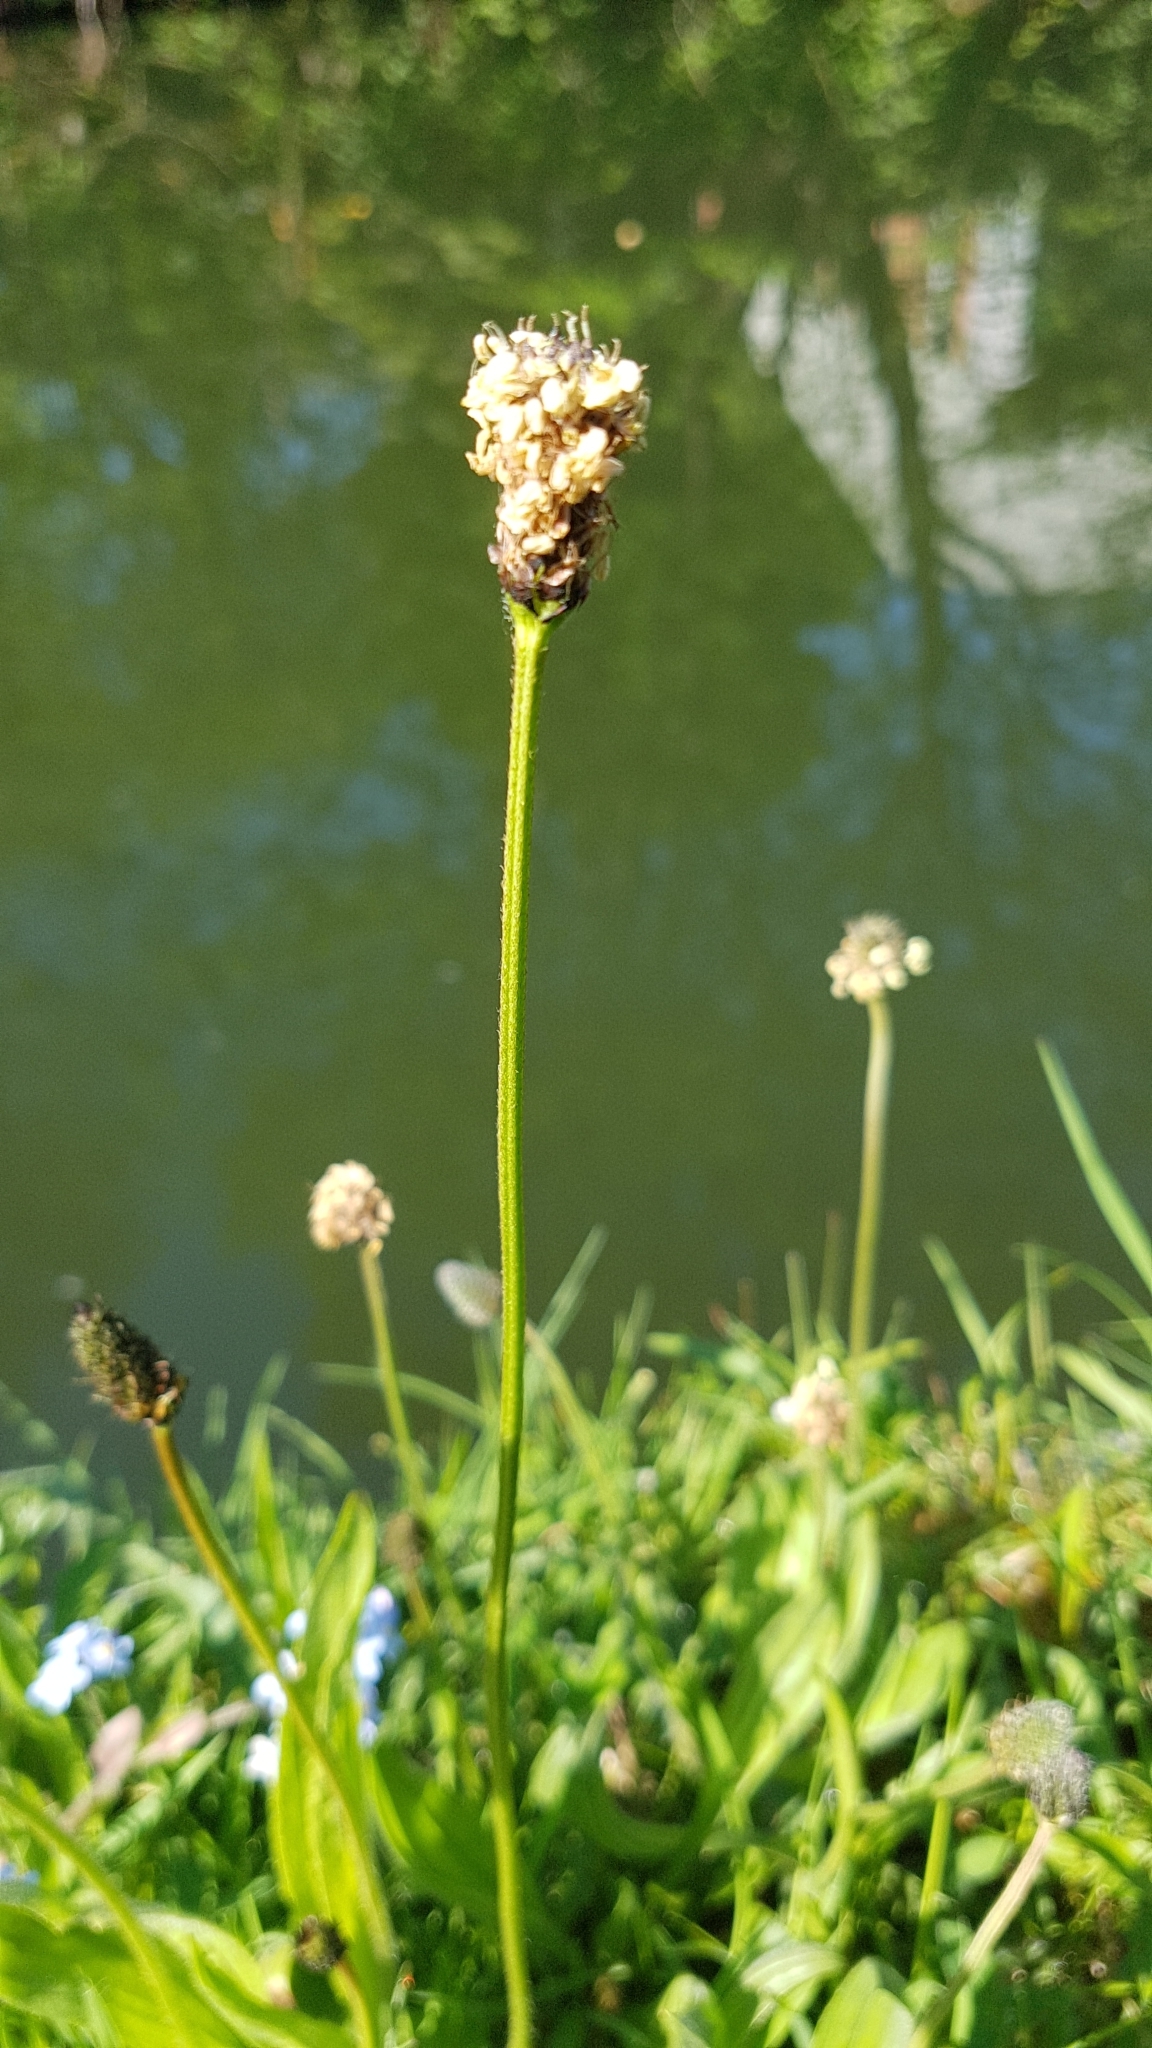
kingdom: Plantae
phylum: Tracheophyta
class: Magnoliopsida
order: Lamiales
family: Plantaginaceae
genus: Plantago
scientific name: Plantago lanceolata
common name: Ribwort plantain
